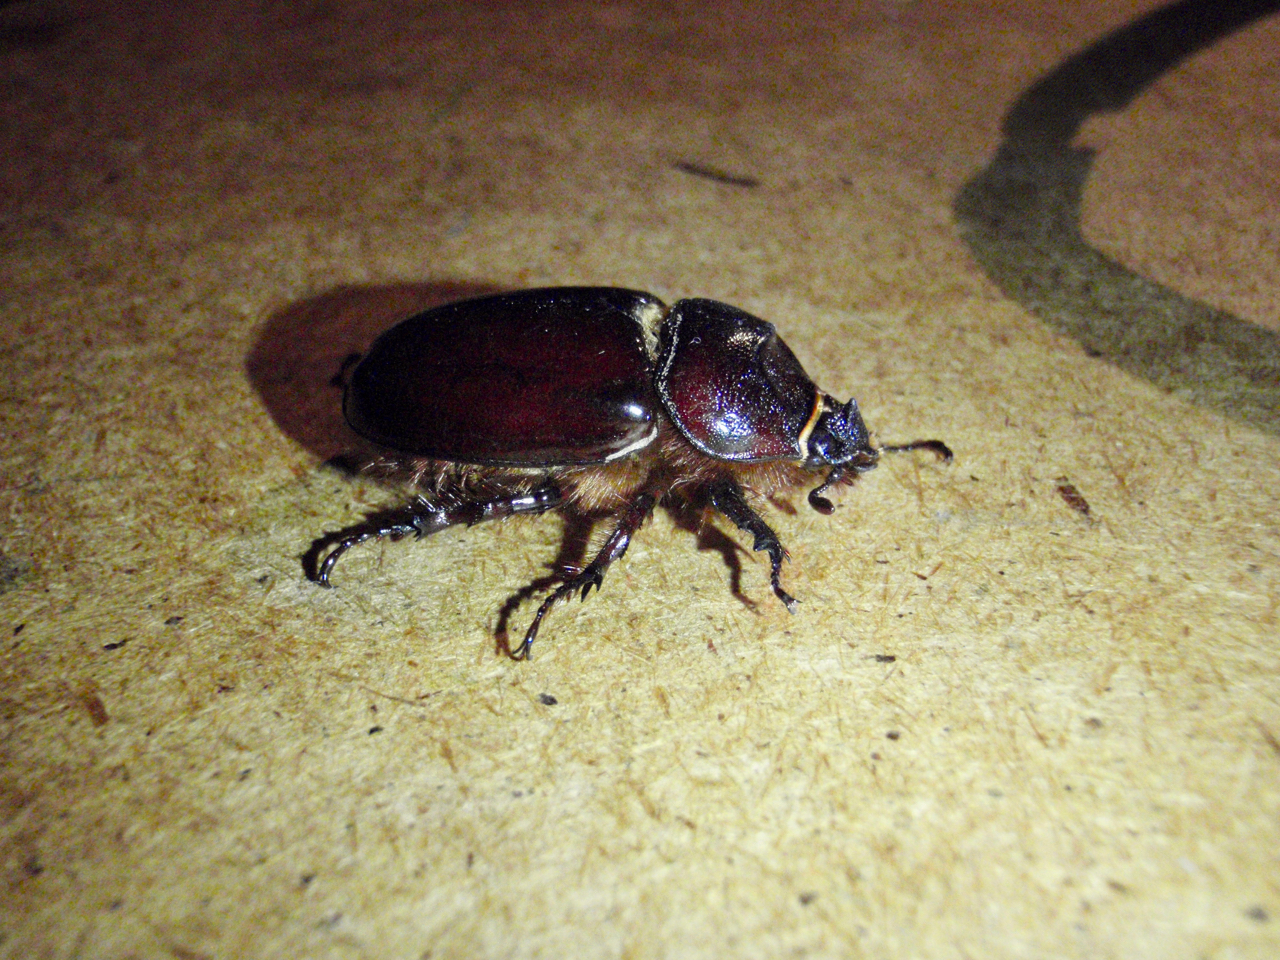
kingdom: Animalia
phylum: Arthropoda
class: Insecta
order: Coleoptera
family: Scarabaeidae
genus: Oryctes
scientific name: Oryctes nasicornis
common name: European rhinoceros beetle
